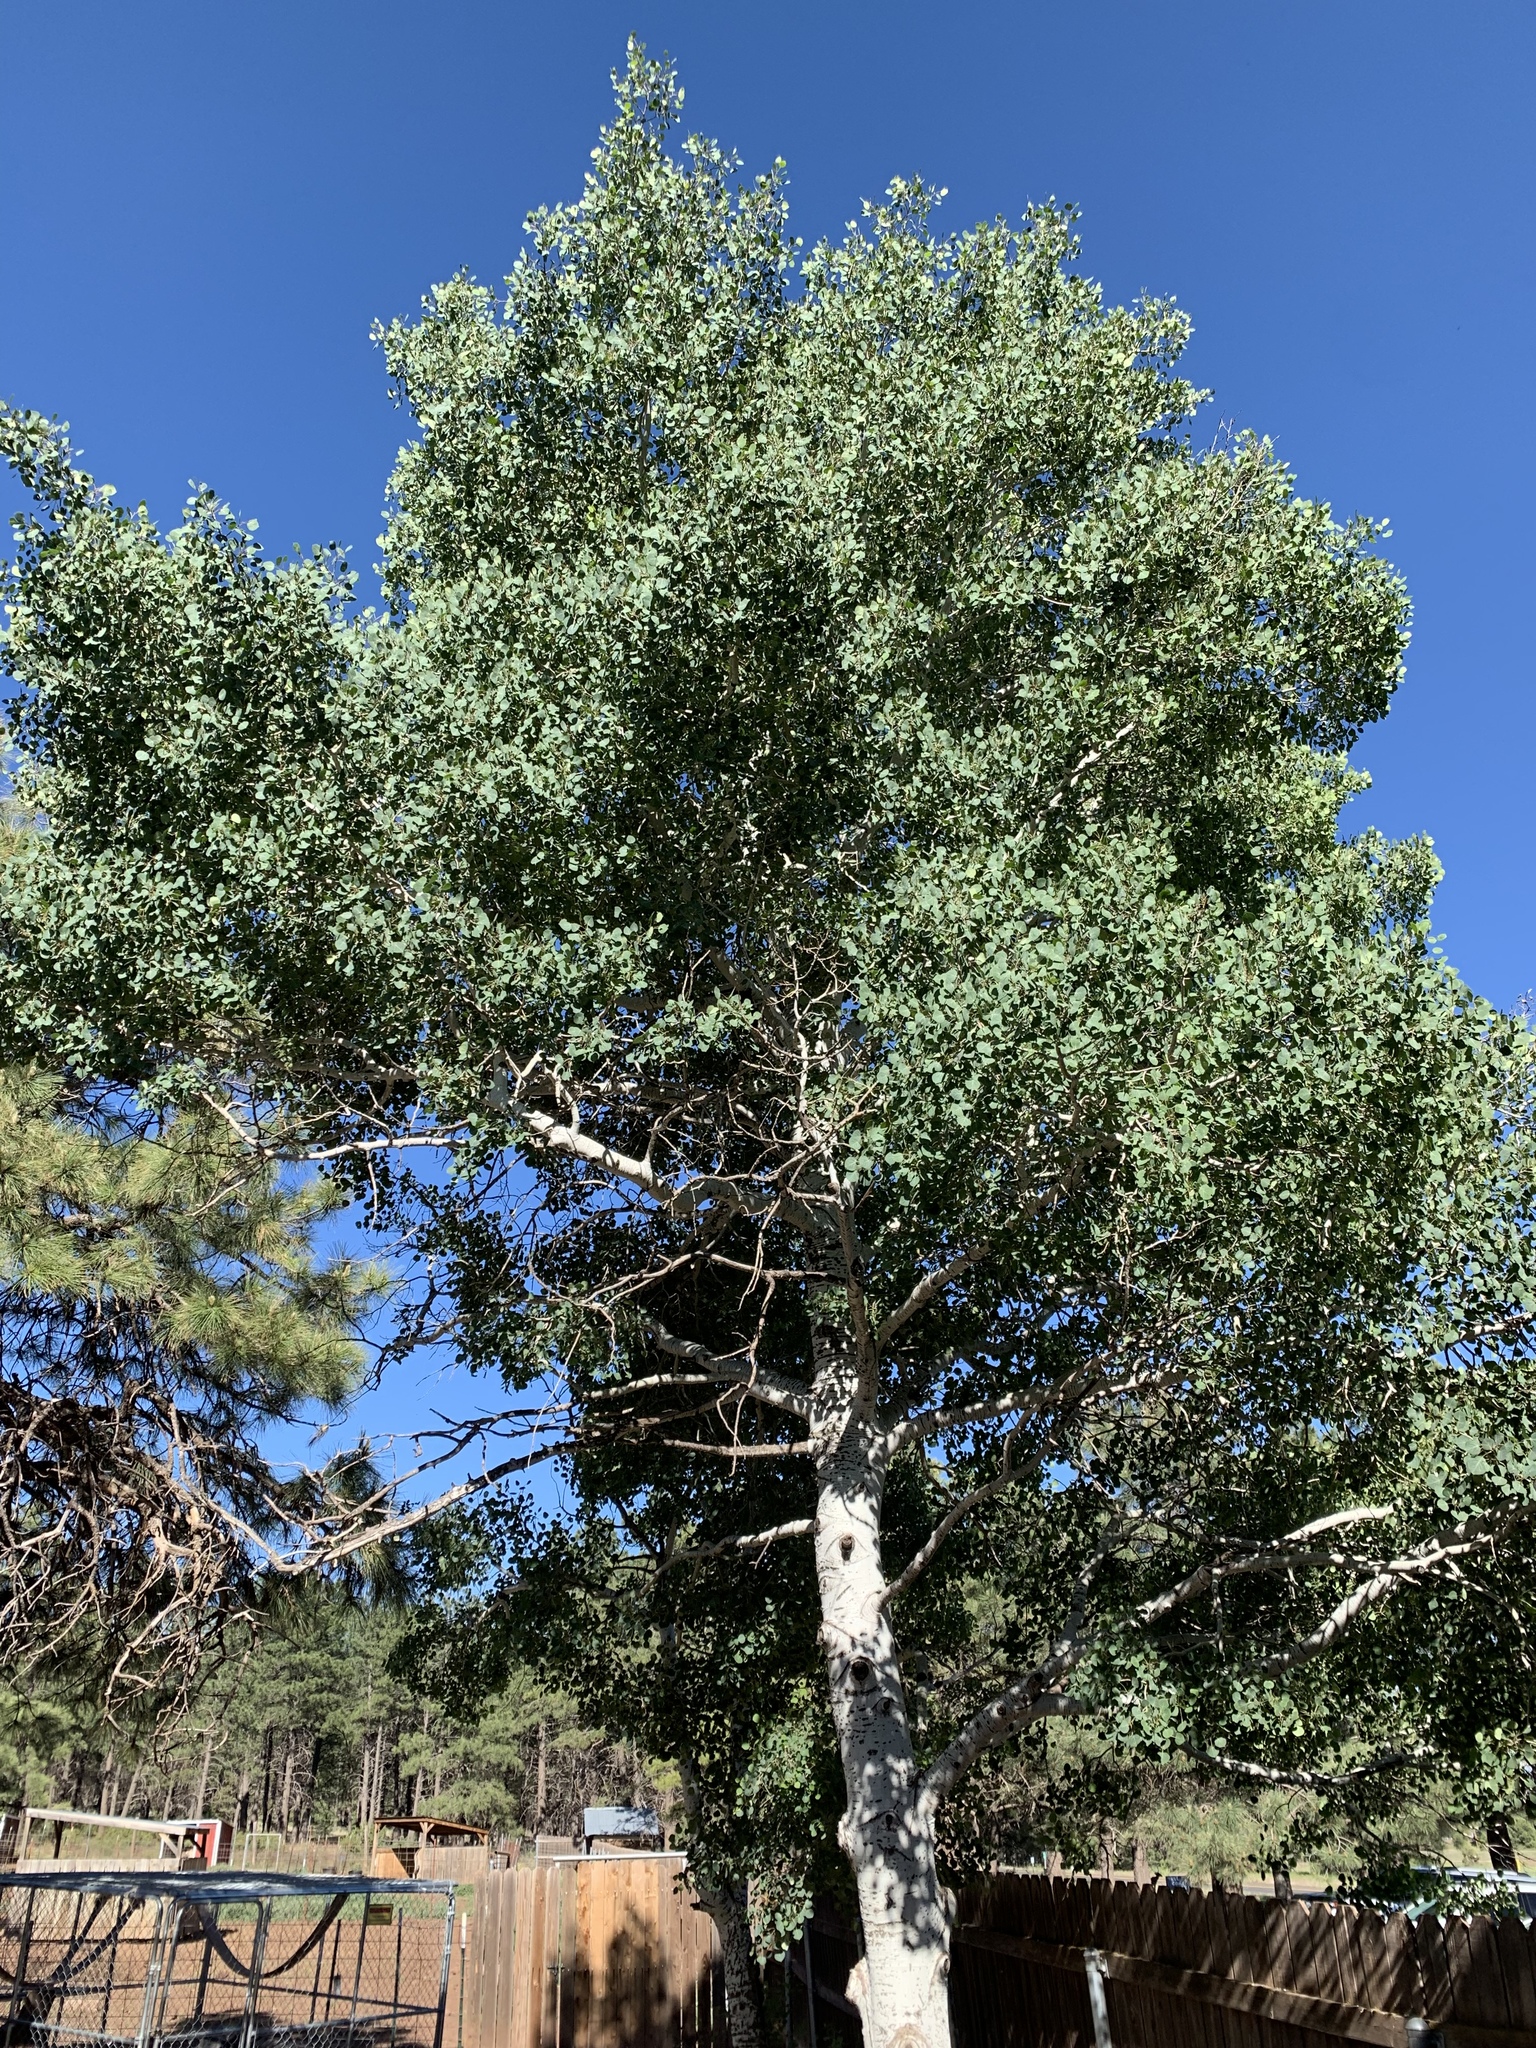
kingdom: Plantae
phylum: Tracheophyta
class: Magnoliopsida
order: Malpighiales
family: Salicaceae
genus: Populus
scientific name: Populus tremuloides
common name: Quaking aspen
